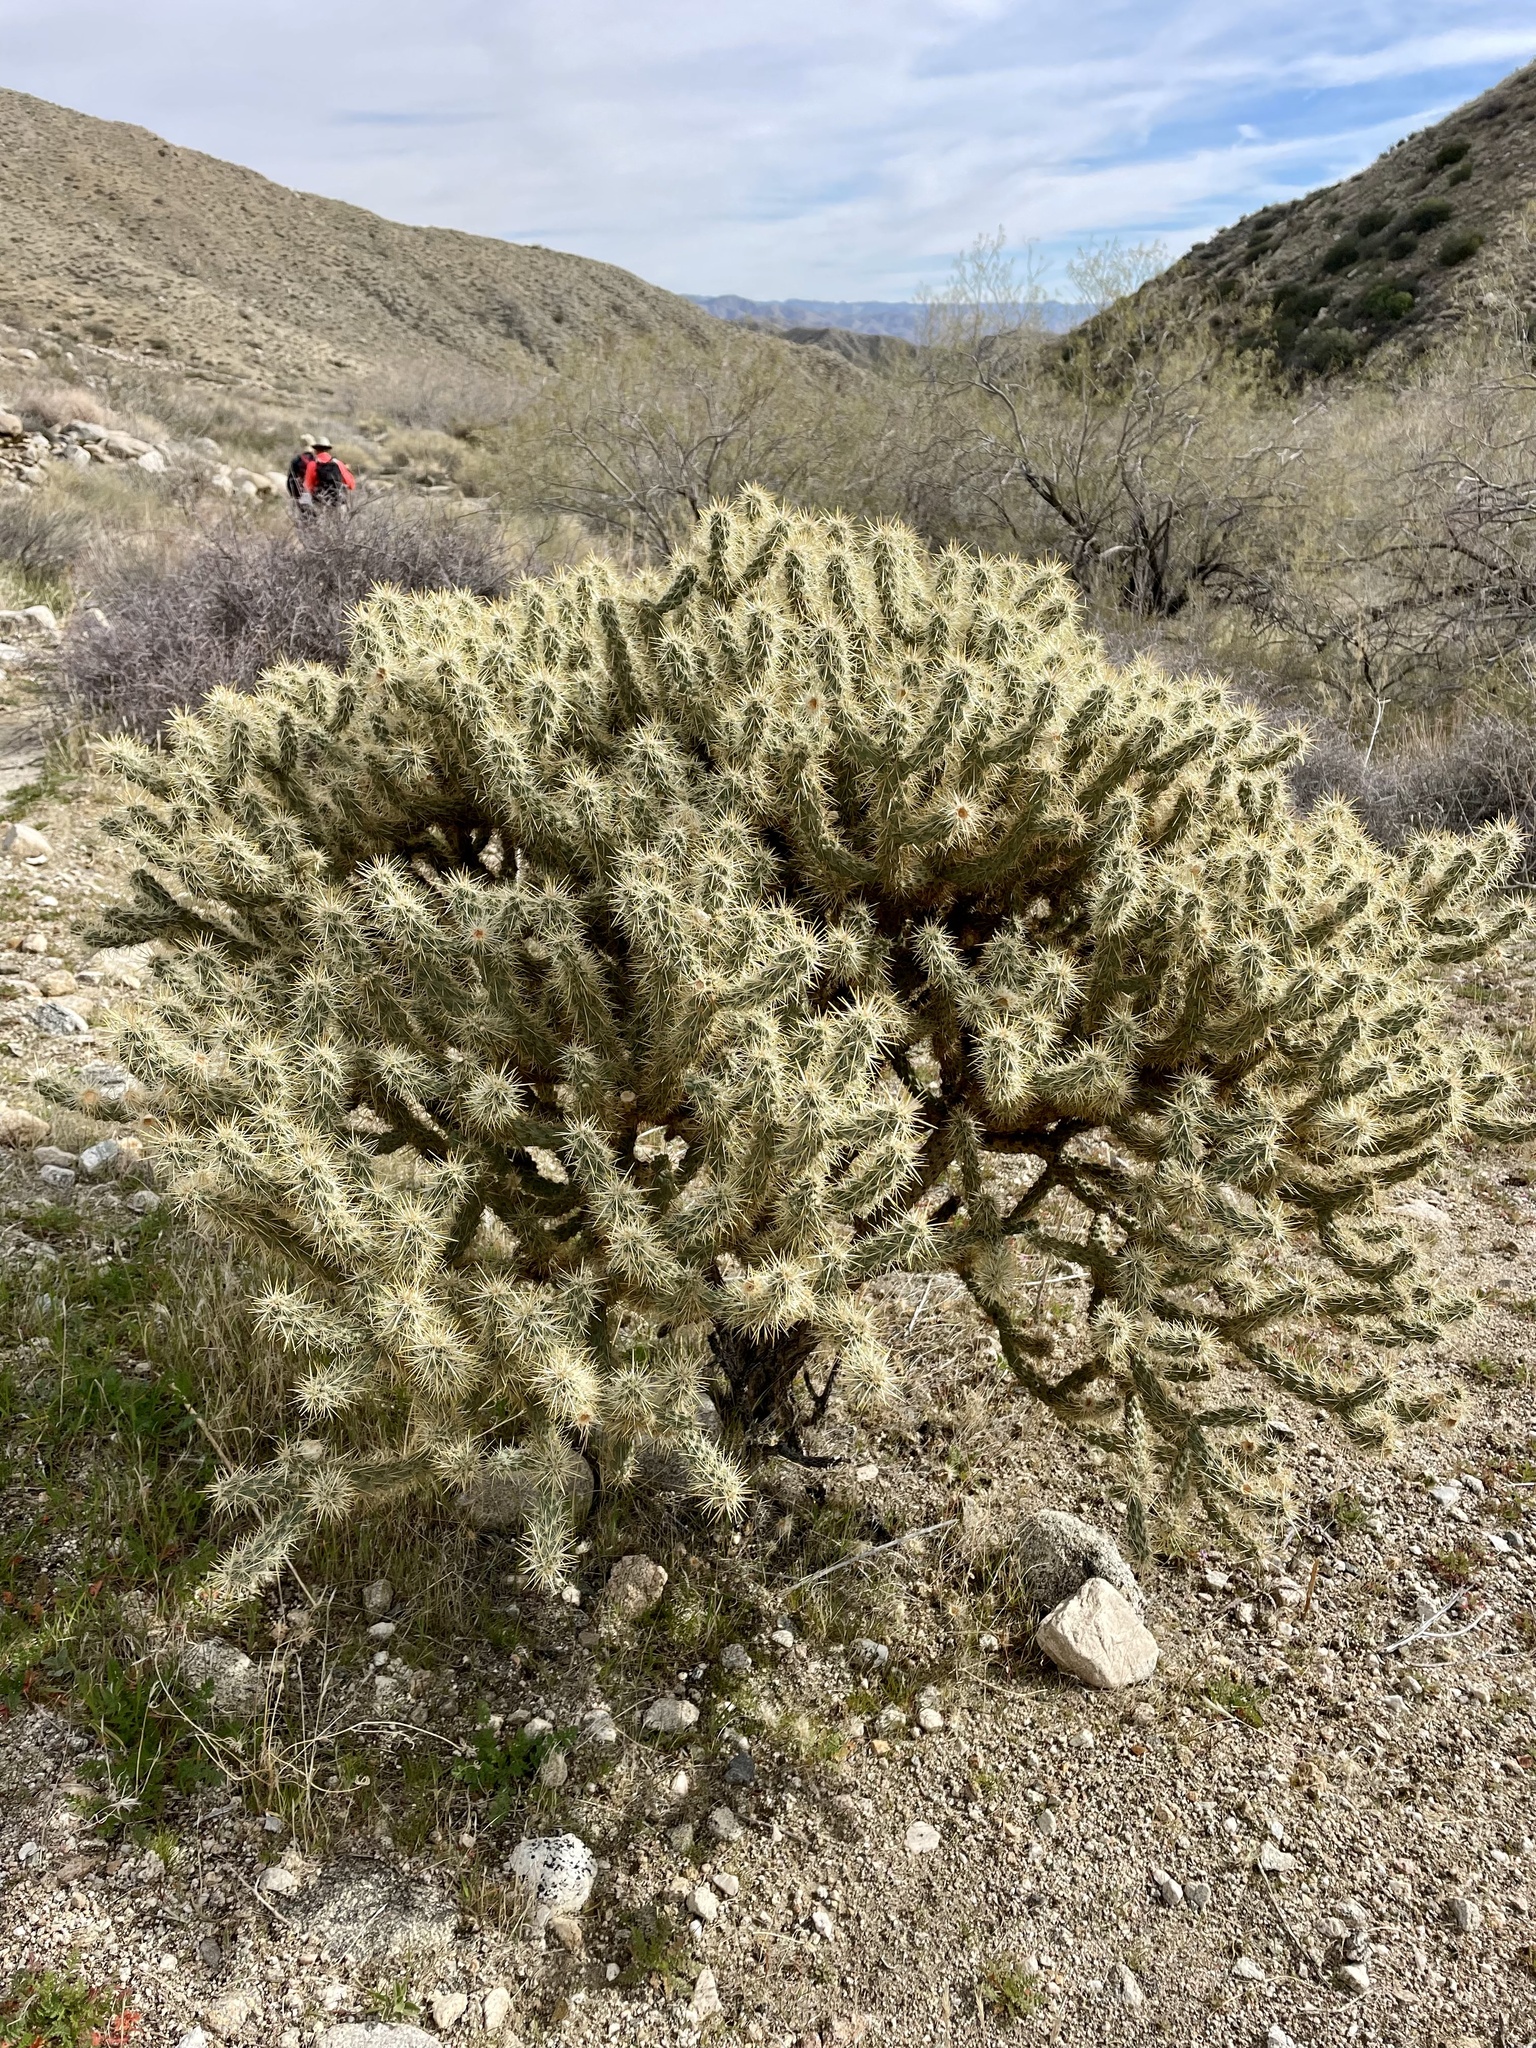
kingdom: Plantae
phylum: Tracheophyta
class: Magnoliopsida
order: Caryophyllales
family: Cactaceae
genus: Cylindropuntia
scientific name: Cylindropuntia echinocarpa
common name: Ground cholla
